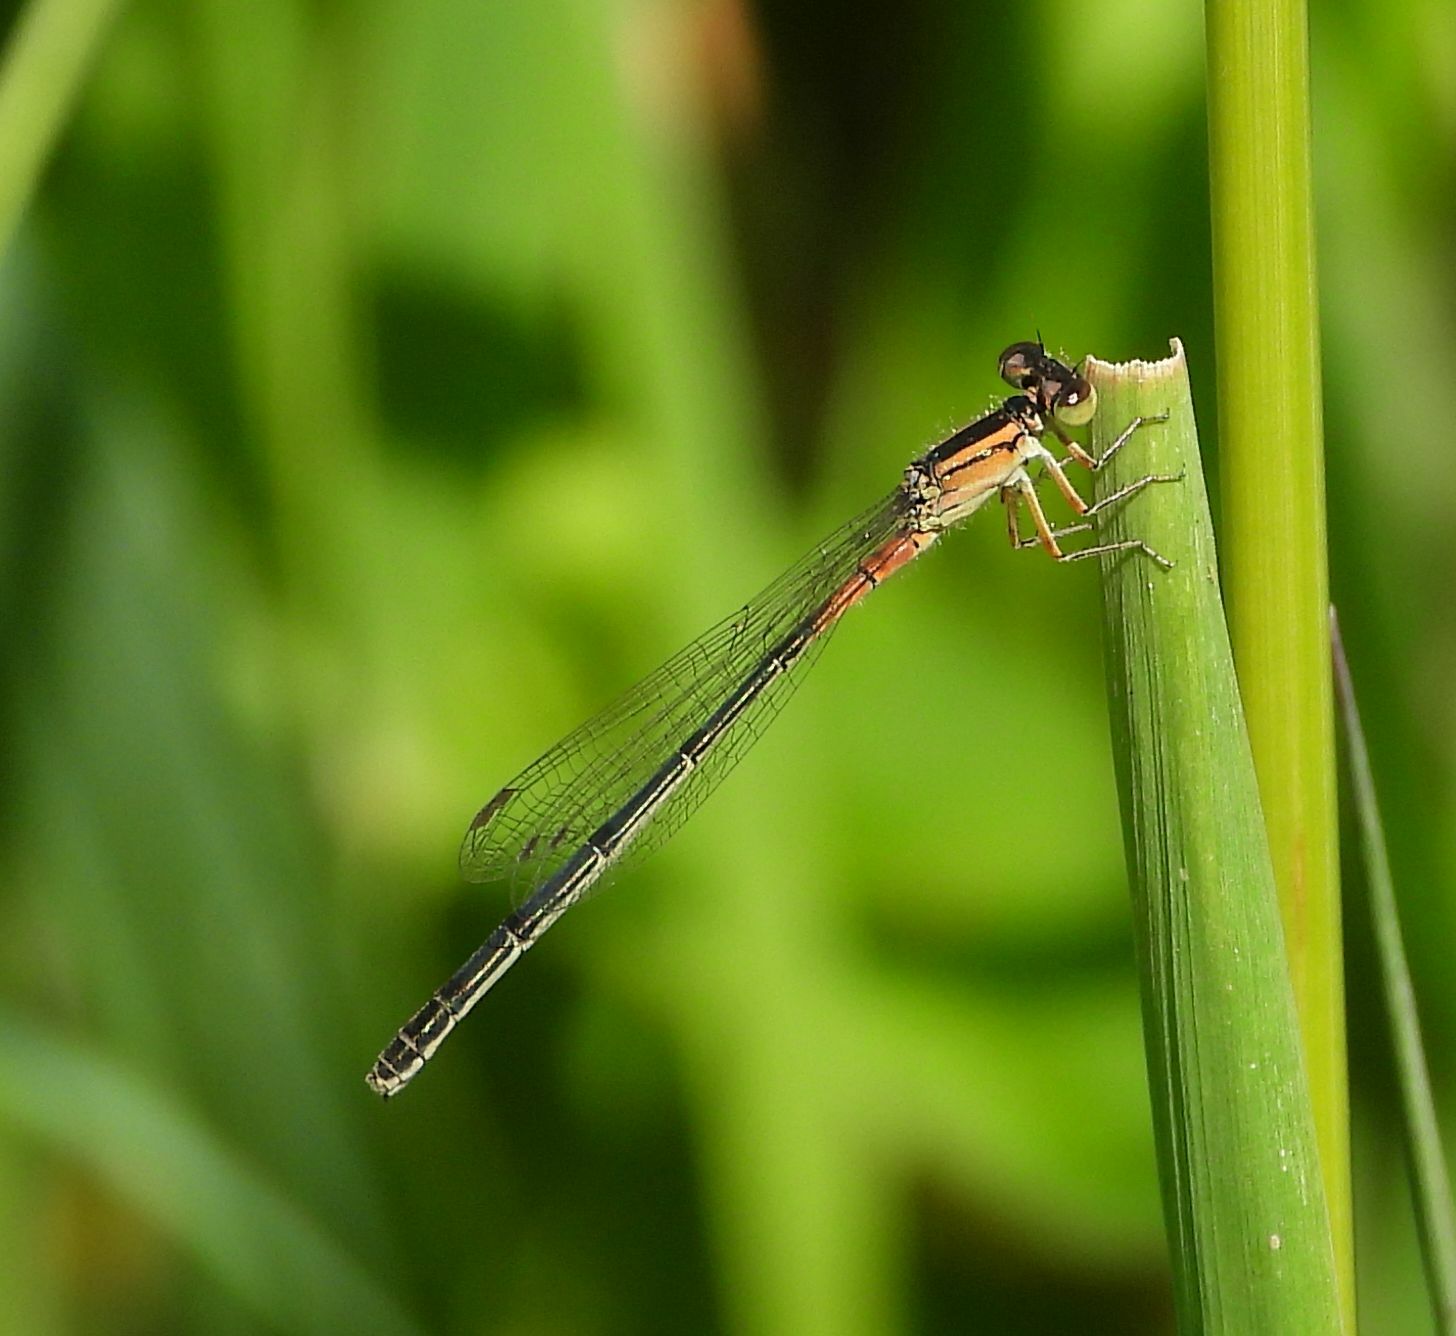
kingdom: Animalia
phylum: Arthropoda
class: Insecta
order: Odonata
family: Coenagrionidae
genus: Ischnura
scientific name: Ischnura verticalis
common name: Eastern forktail
